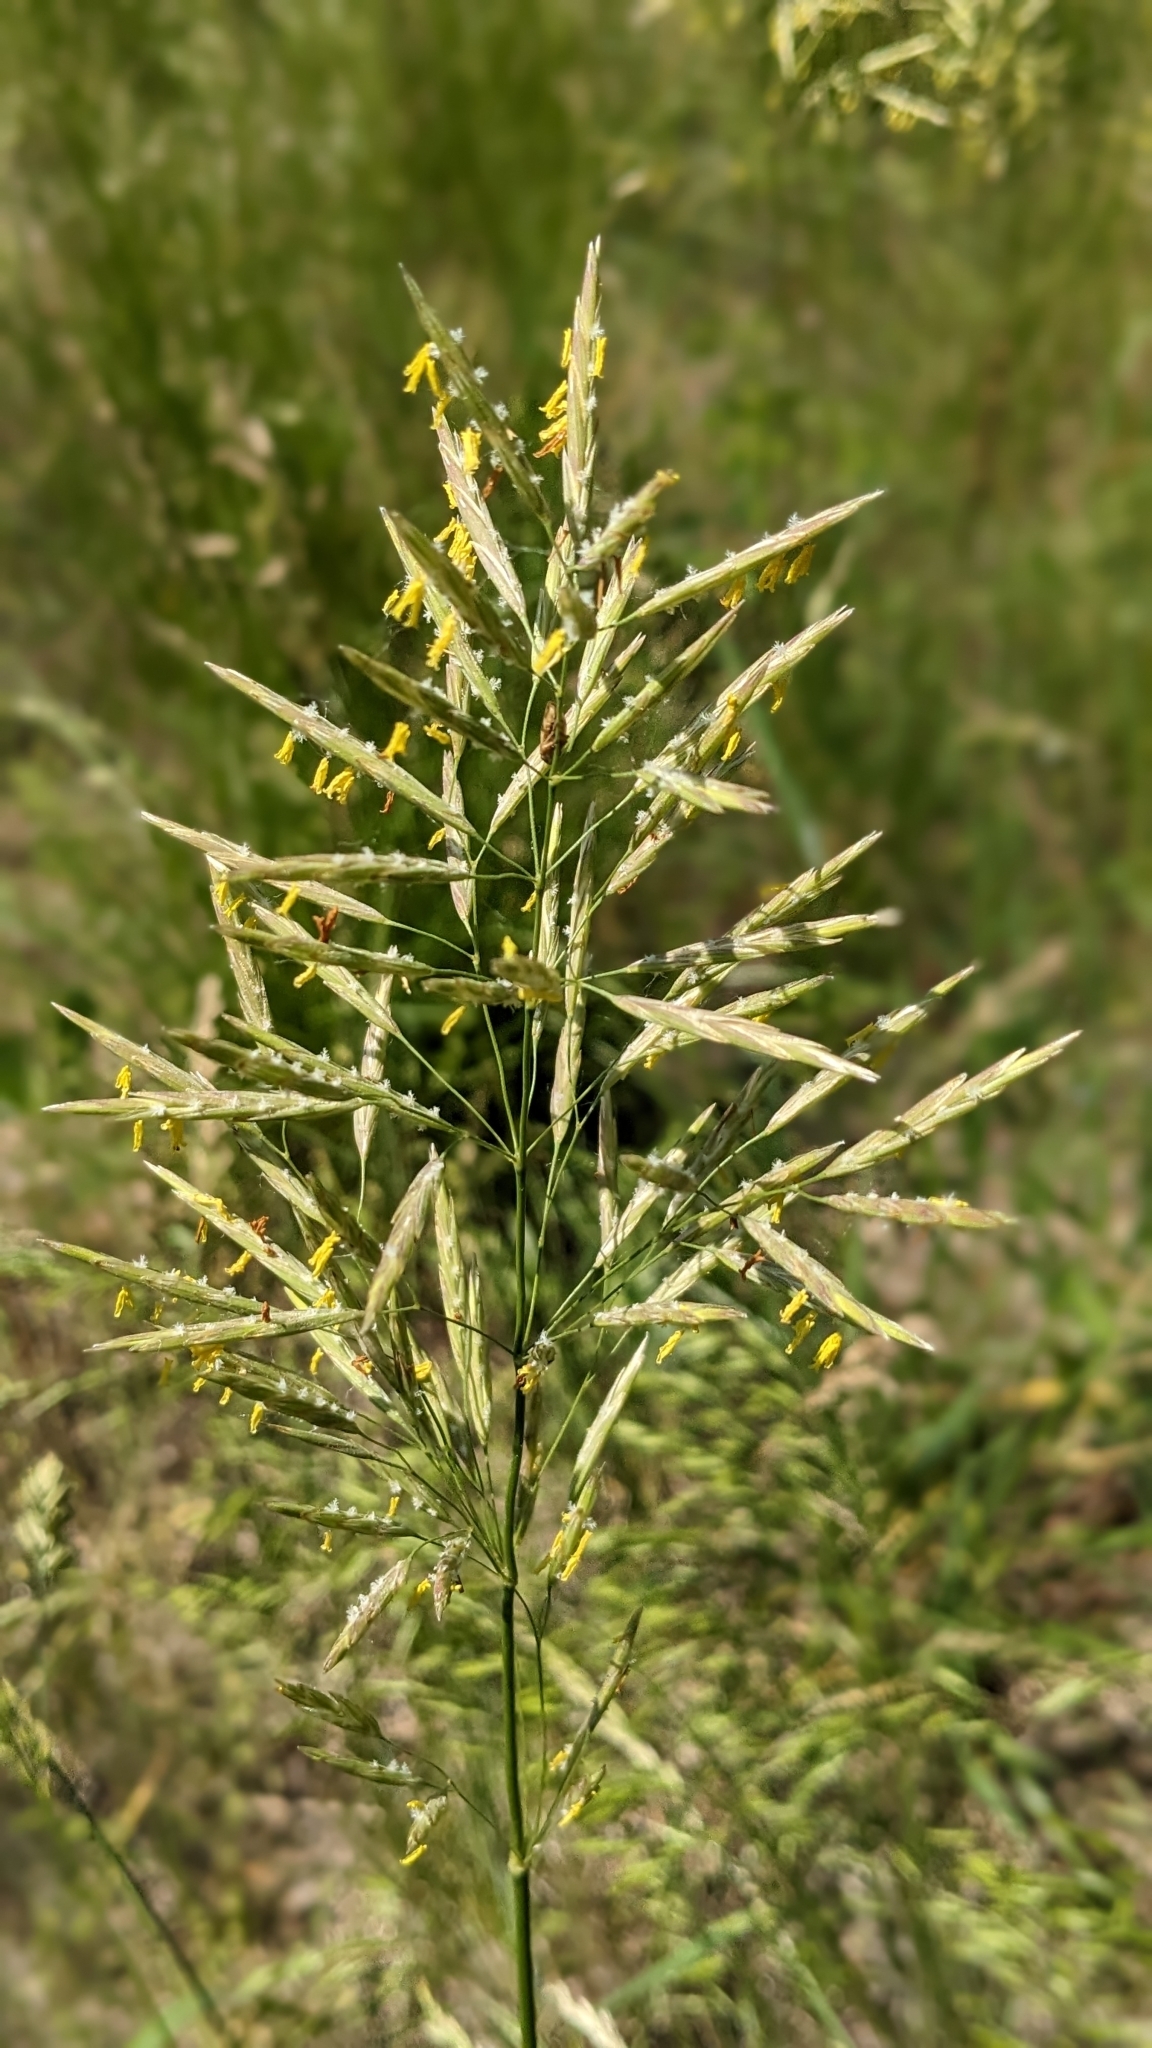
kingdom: Plantae
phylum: Tracheophyta
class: Liliopsida
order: Poales
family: Poaceae
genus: Bromus
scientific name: Bromus inermis
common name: Smooth brome
